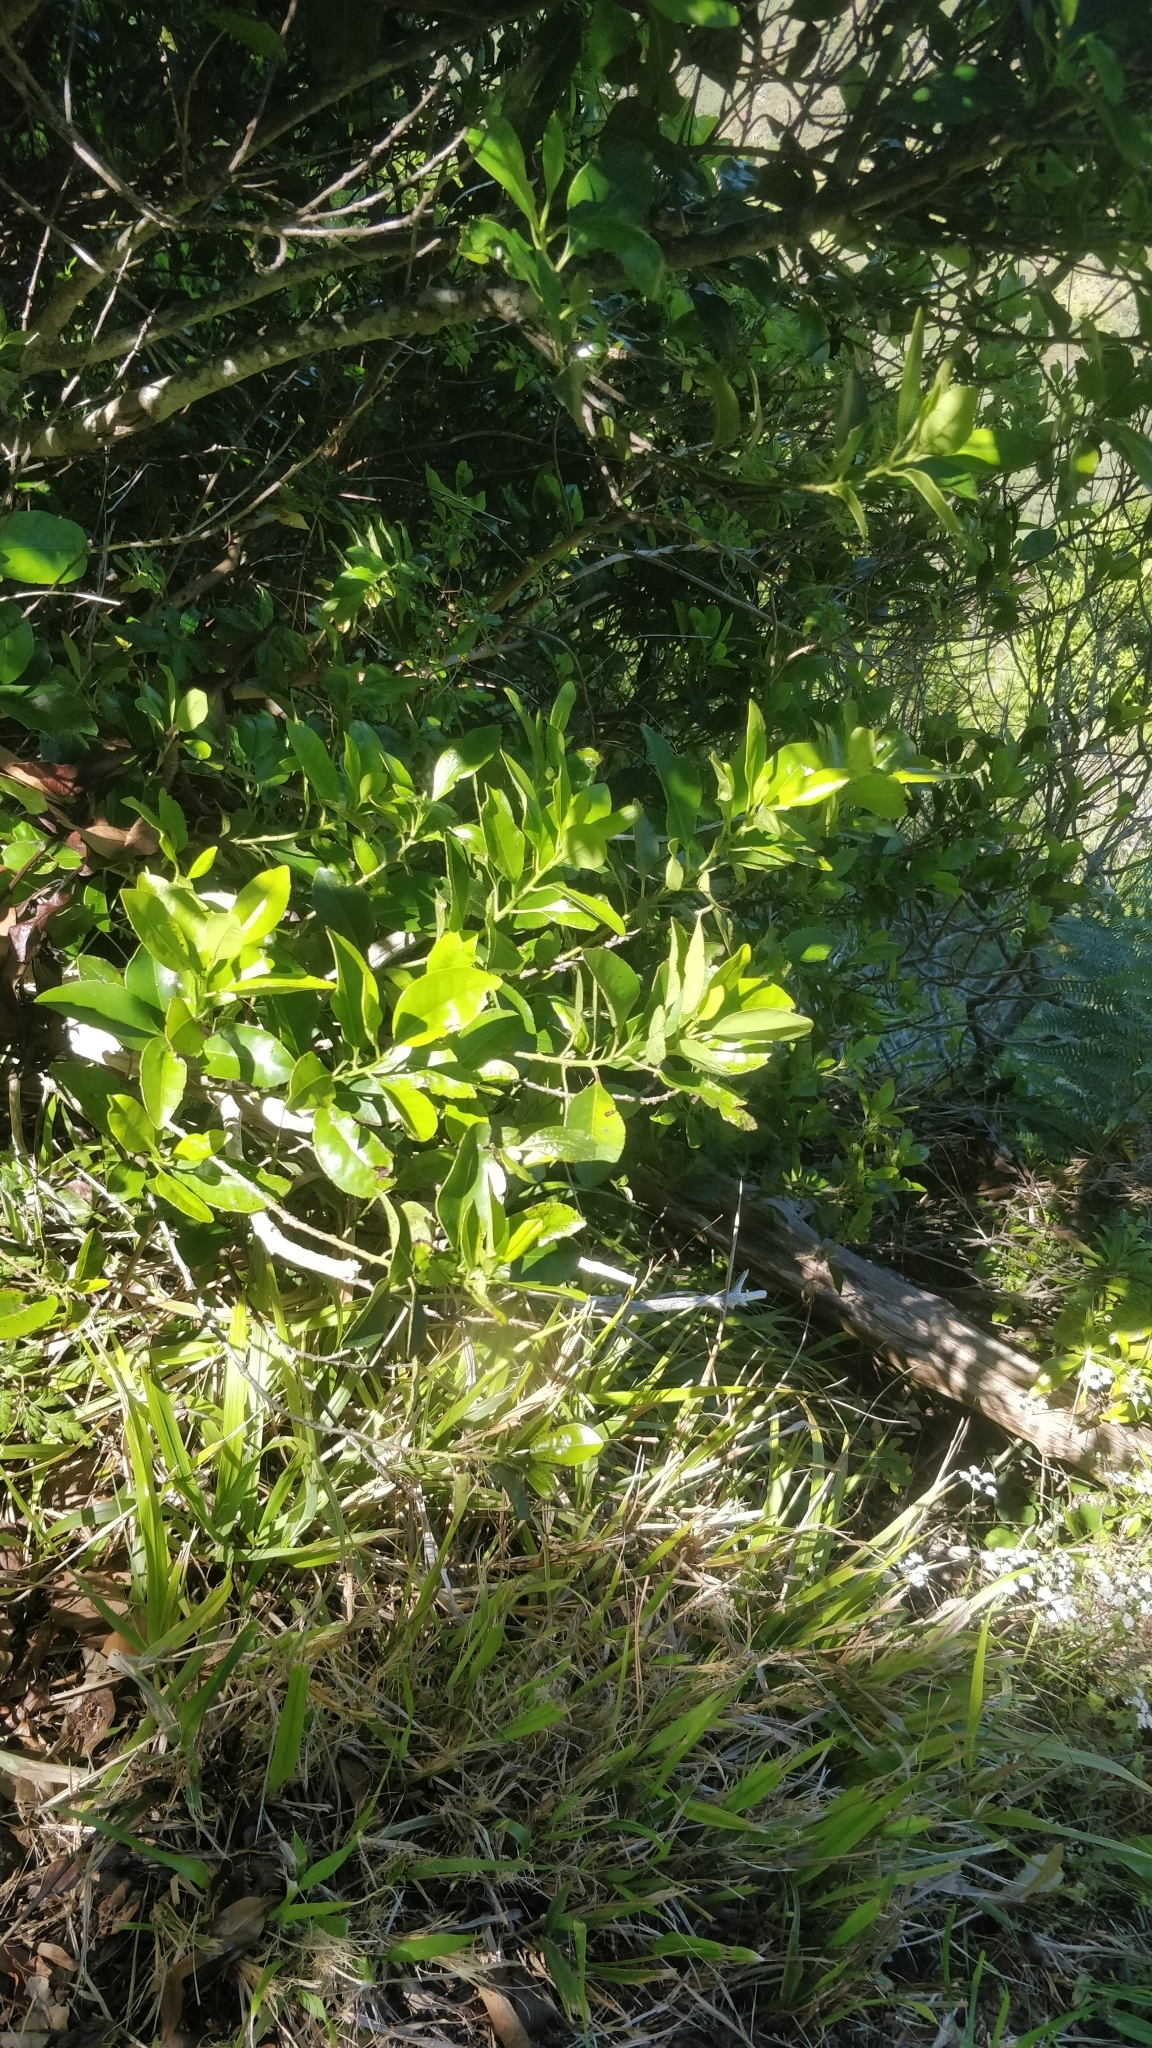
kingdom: Plantae
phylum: Tracheophyta
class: Magnoliopsida
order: Aquifoliales
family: Aquifoliaceae
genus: Ilex
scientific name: Ilex canariensis
